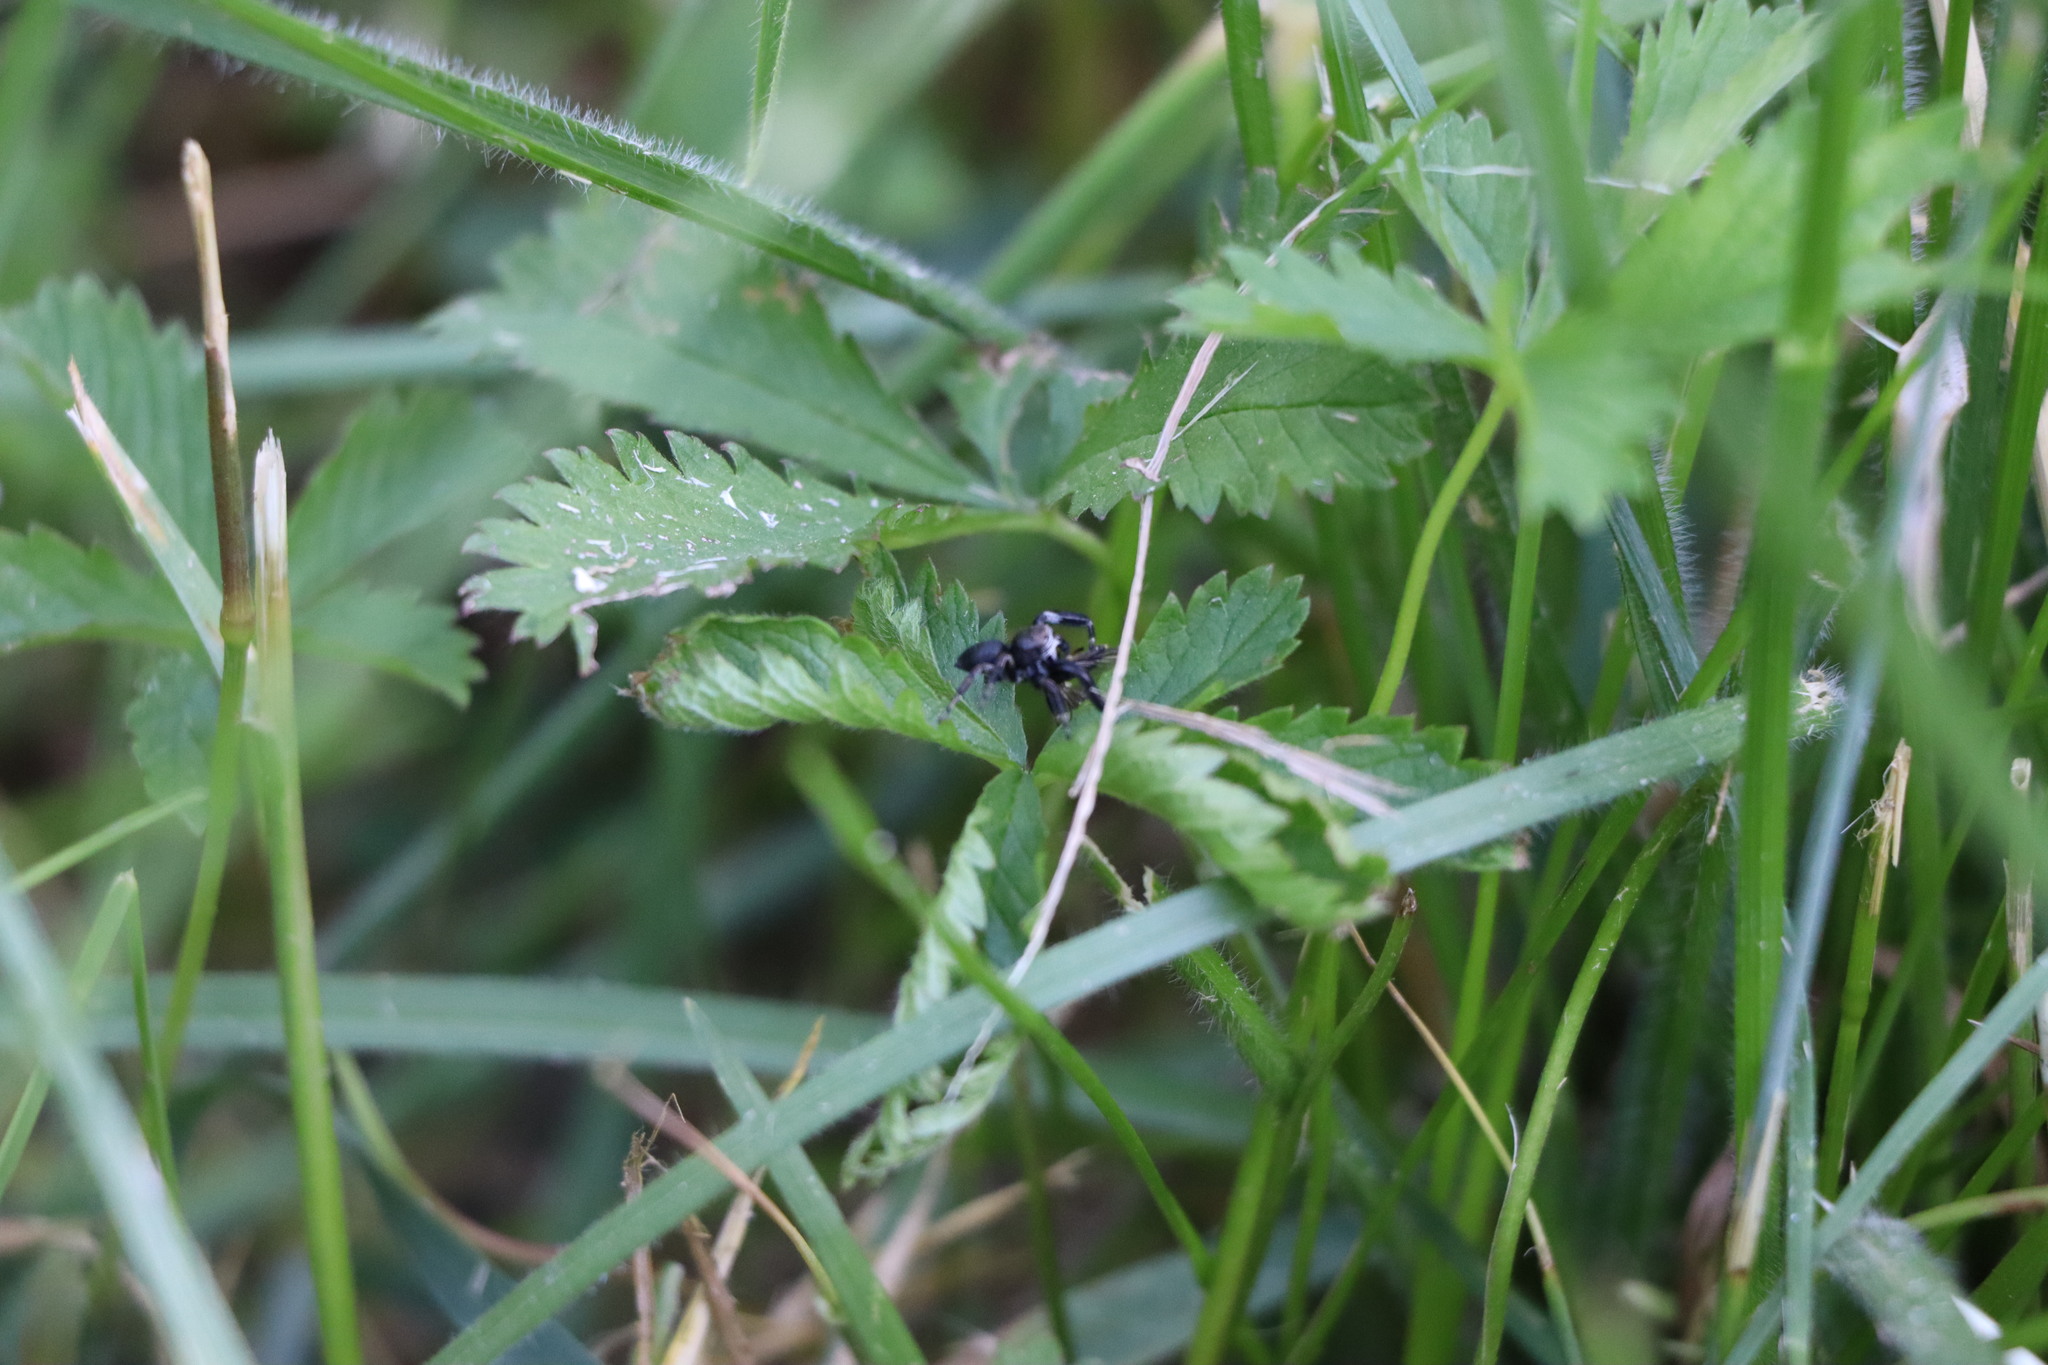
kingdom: Animalia
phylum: Arthropoda
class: Arachnida
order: Araneae
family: Salticidae
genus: Evarcha
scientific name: Evarcha arcuata
